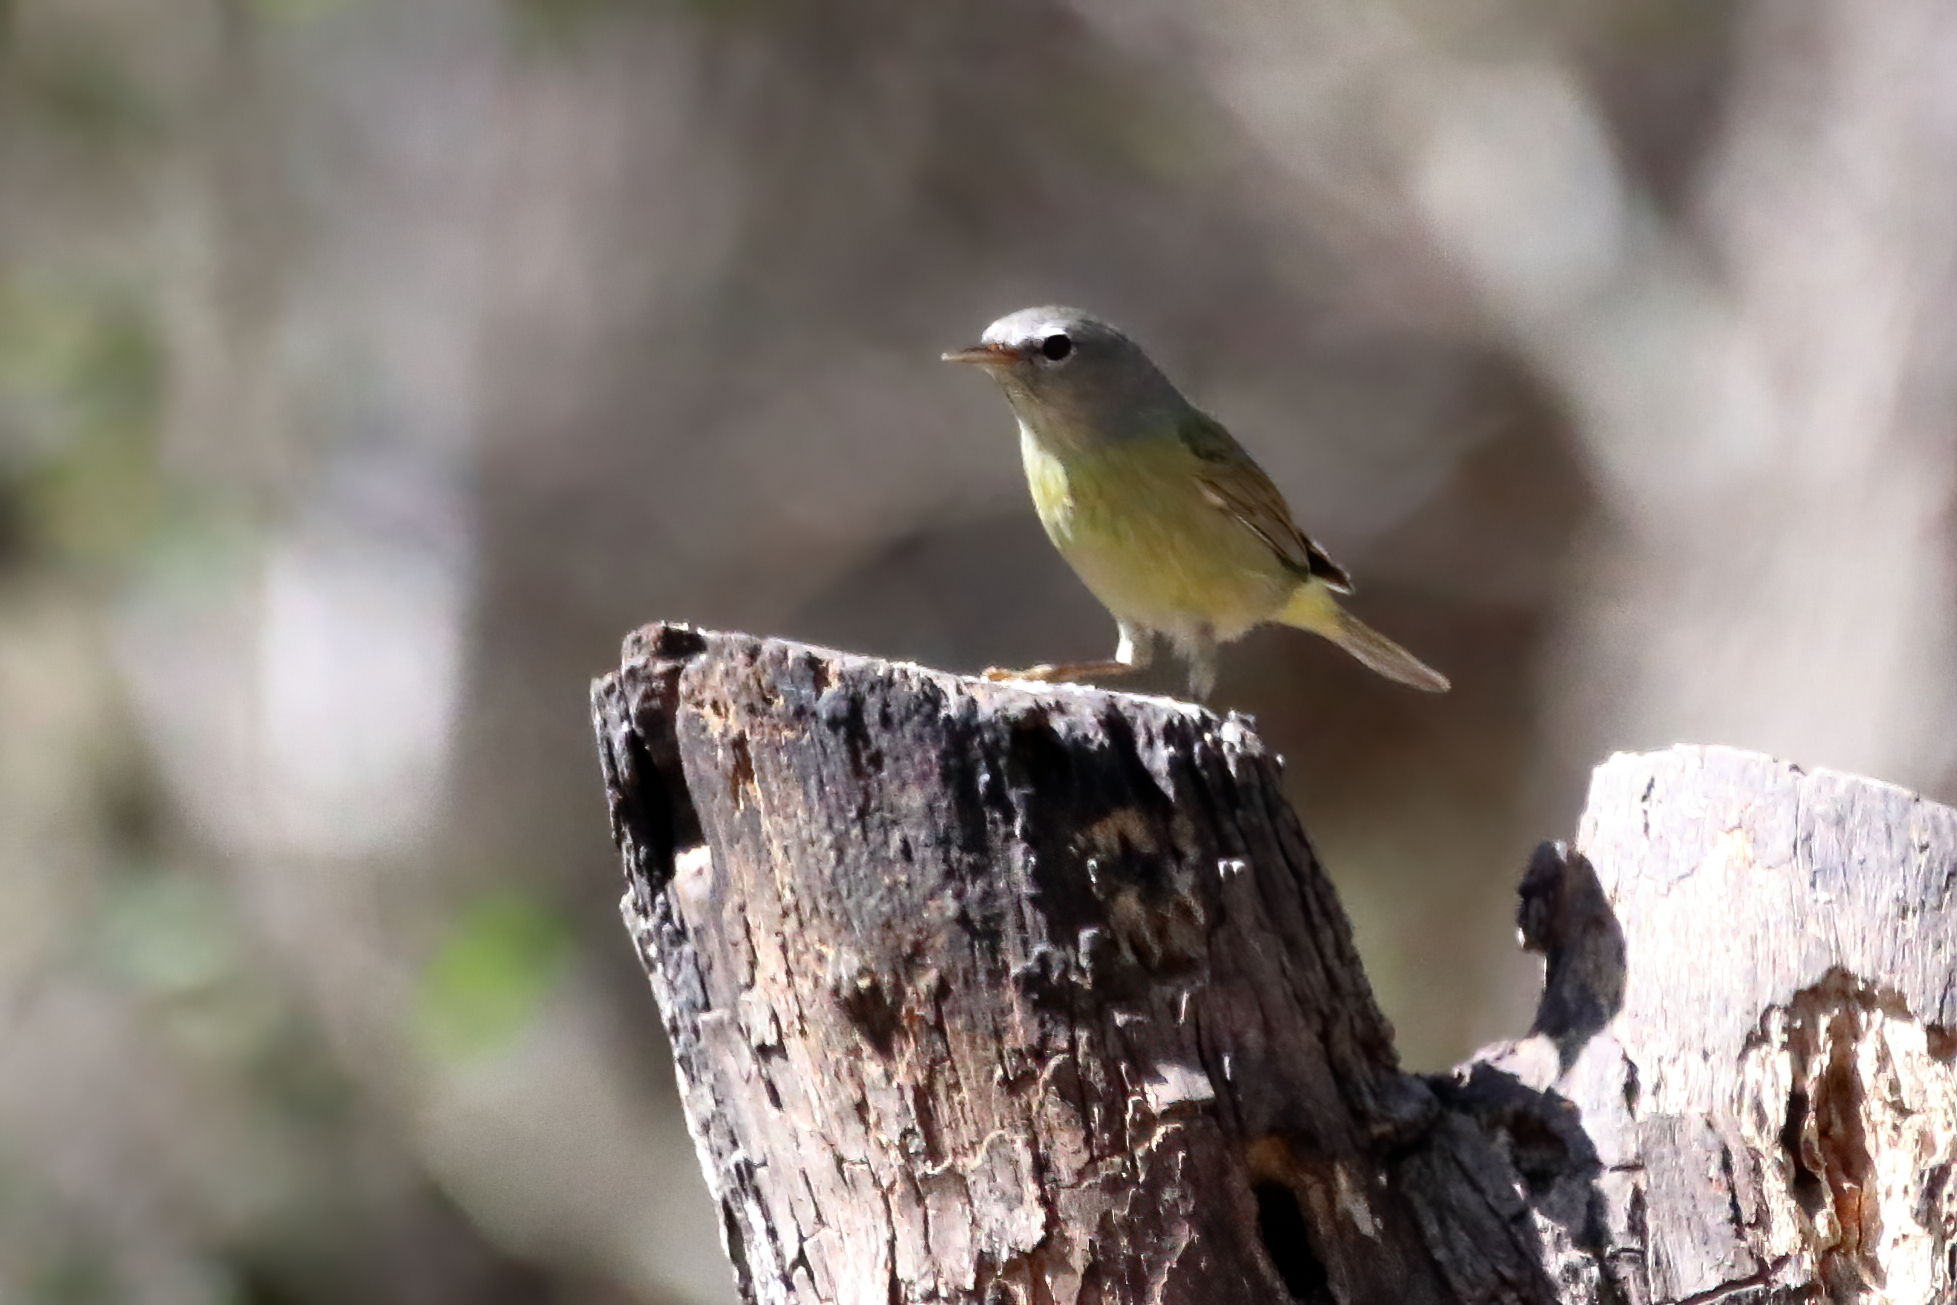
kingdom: Animalia
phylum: Chordata
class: Aves
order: Passeriformes
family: Parulidae
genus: Leiothlypis
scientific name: Leiothlypis celata
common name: Orange-crowned warbler
